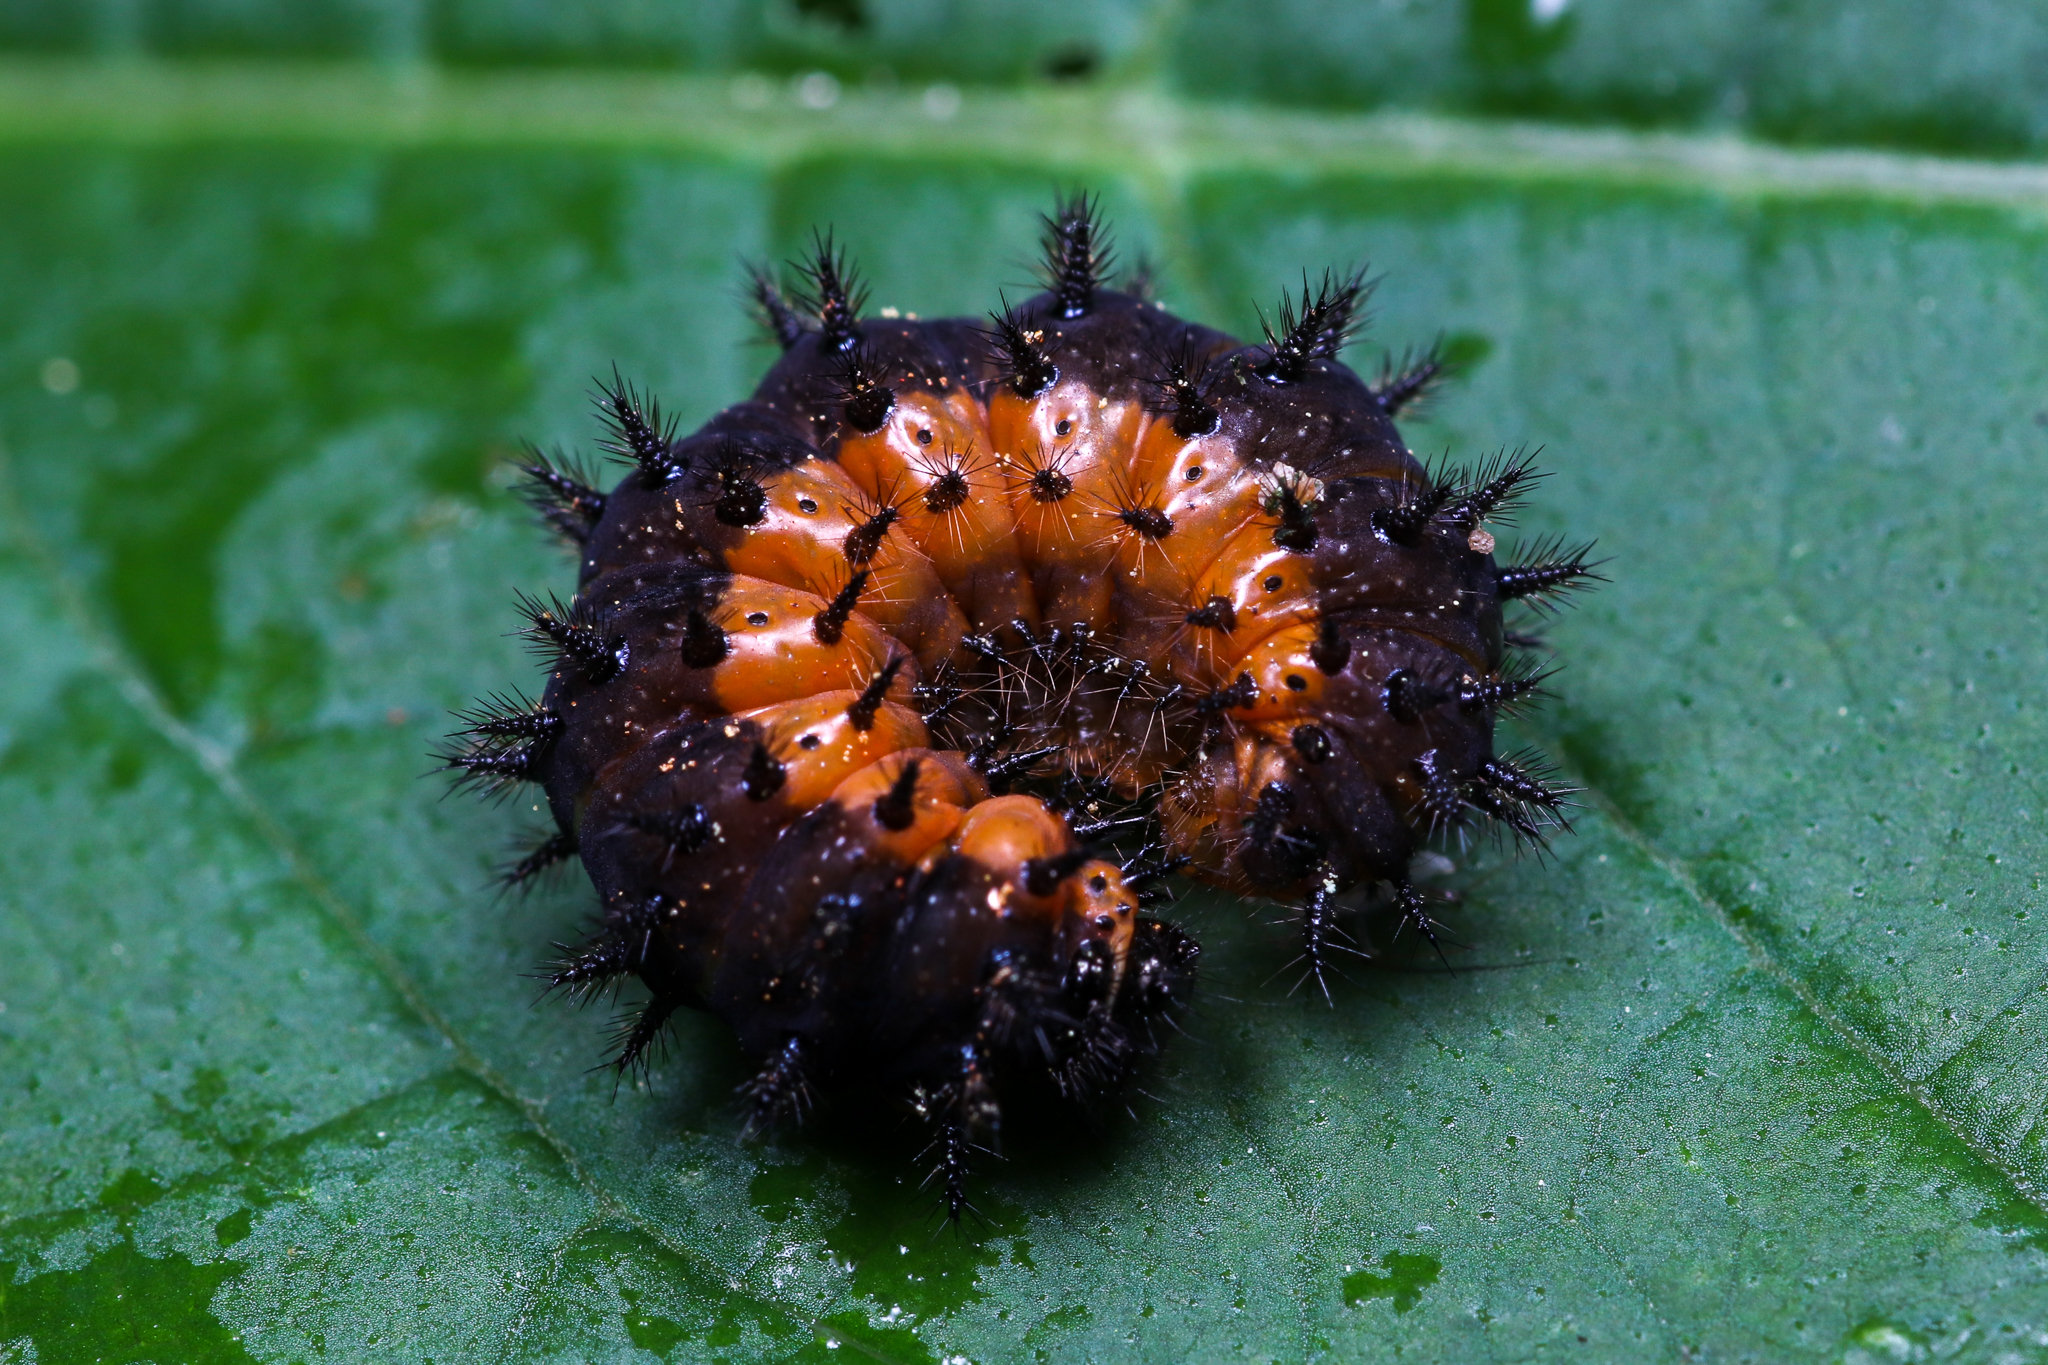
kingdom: Animalia
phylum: Arthropoda
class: Insecta
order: Lepidoptera
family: Nymphalidae
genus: Chlosyne
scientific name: Chlosyne nycteis
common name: Silvery checkerspot
